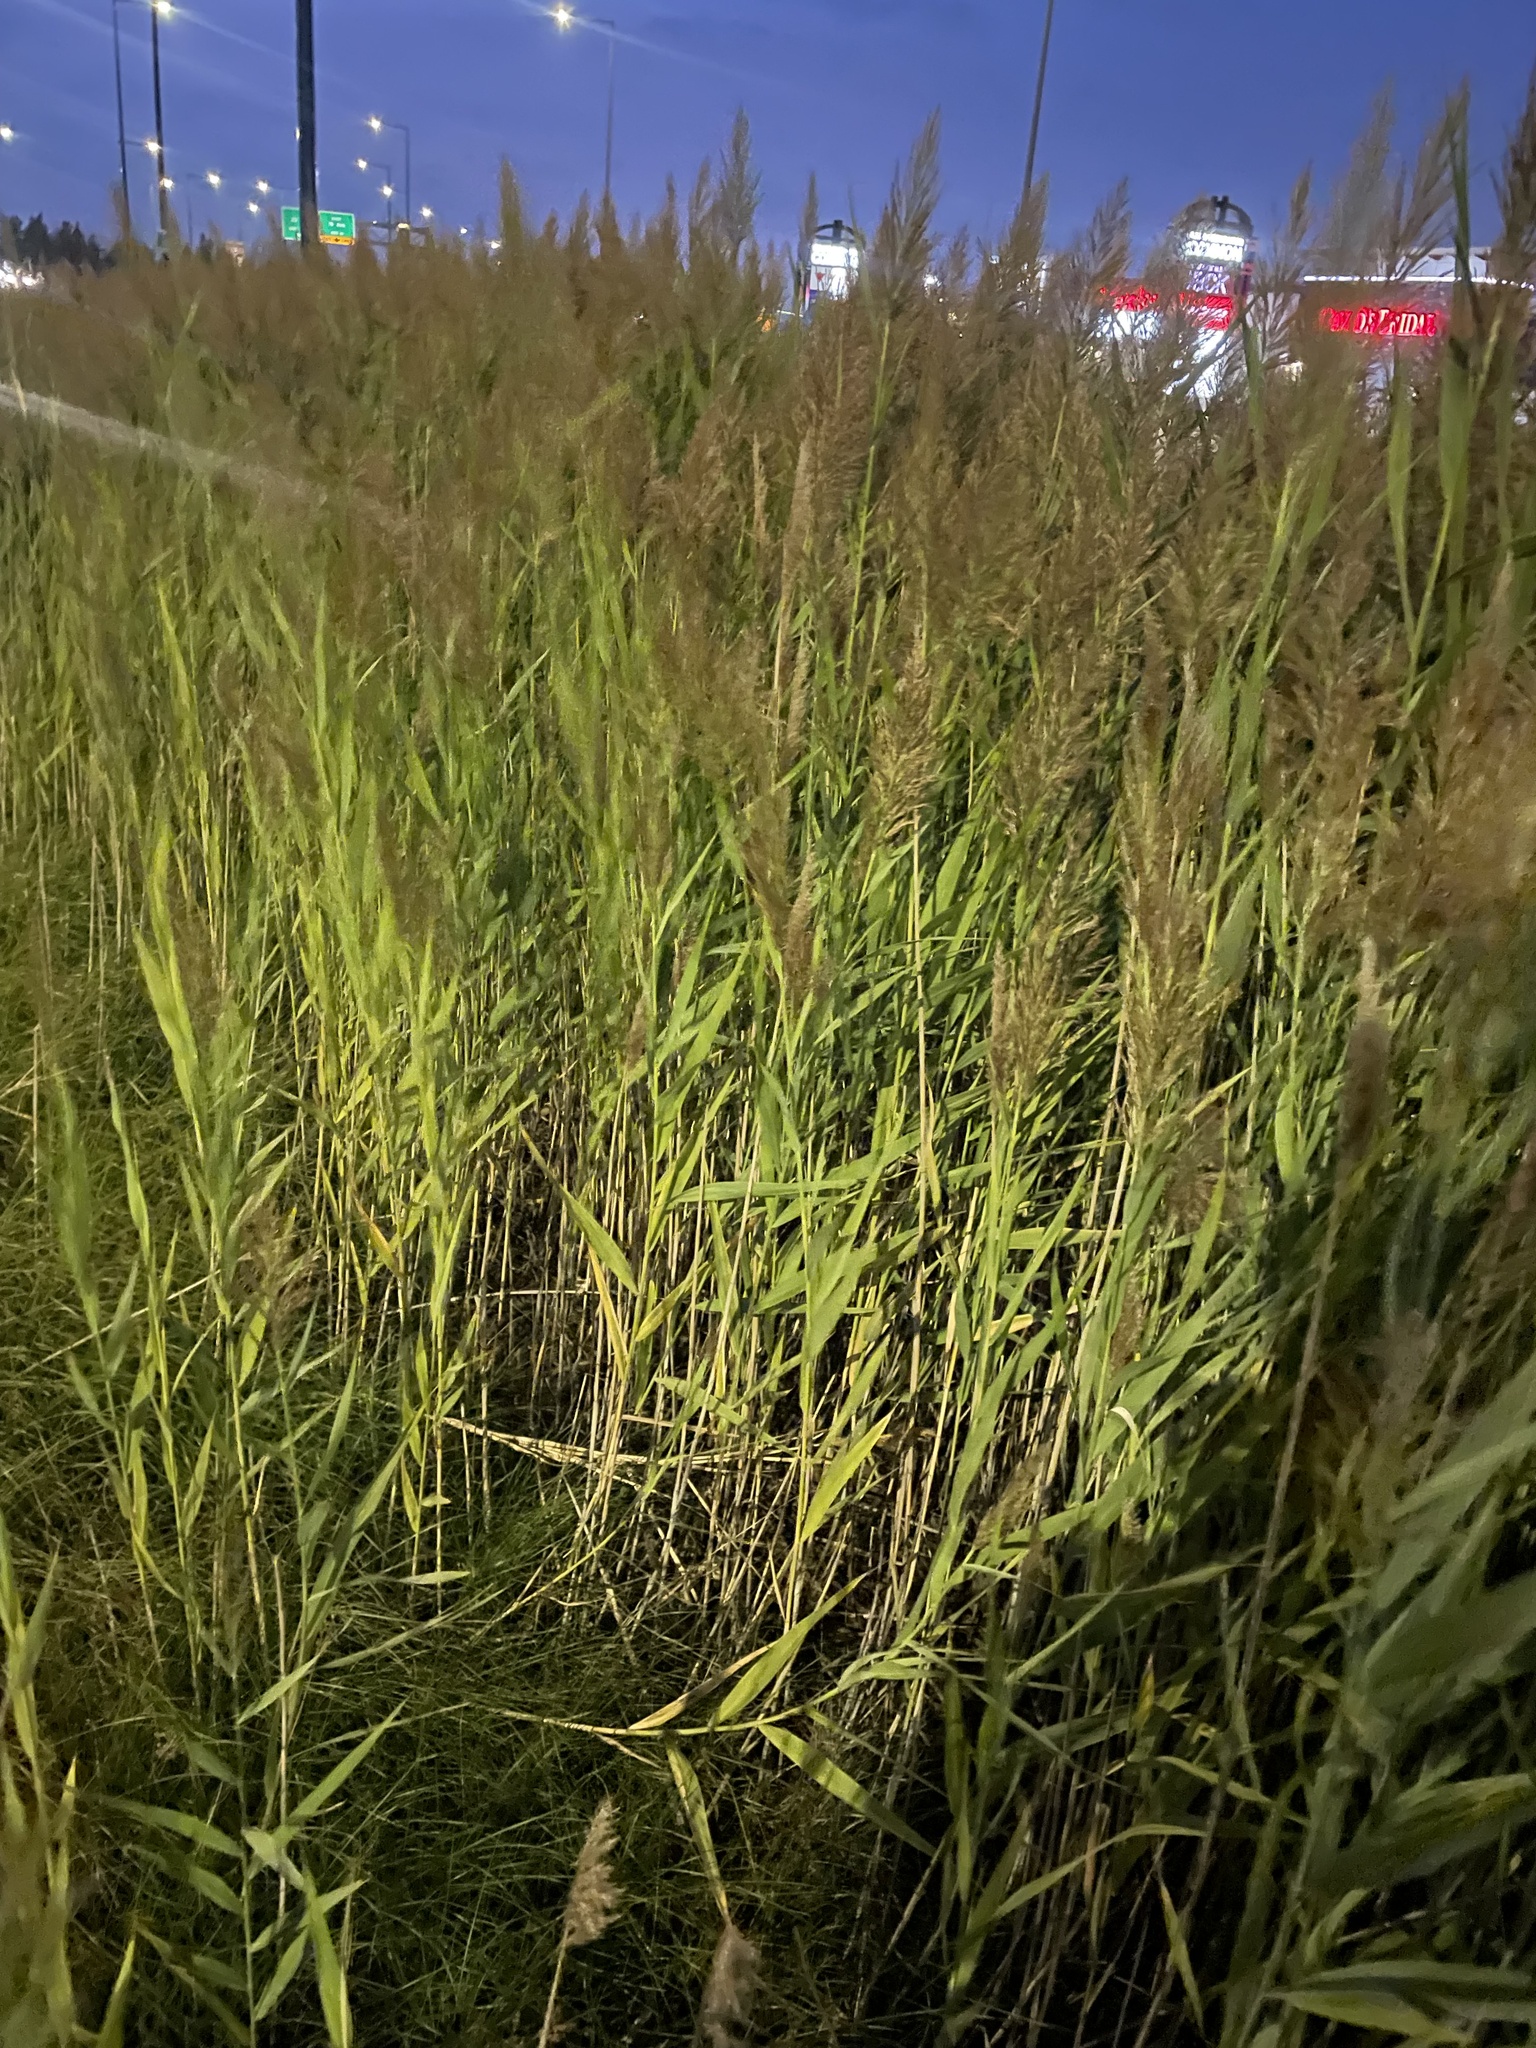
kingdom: Plantae
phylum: Tracheophyta
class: Liliopsida
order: Poales
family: Poaceae
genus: Phragmites
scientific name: Phragmites australis
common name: Common reed
